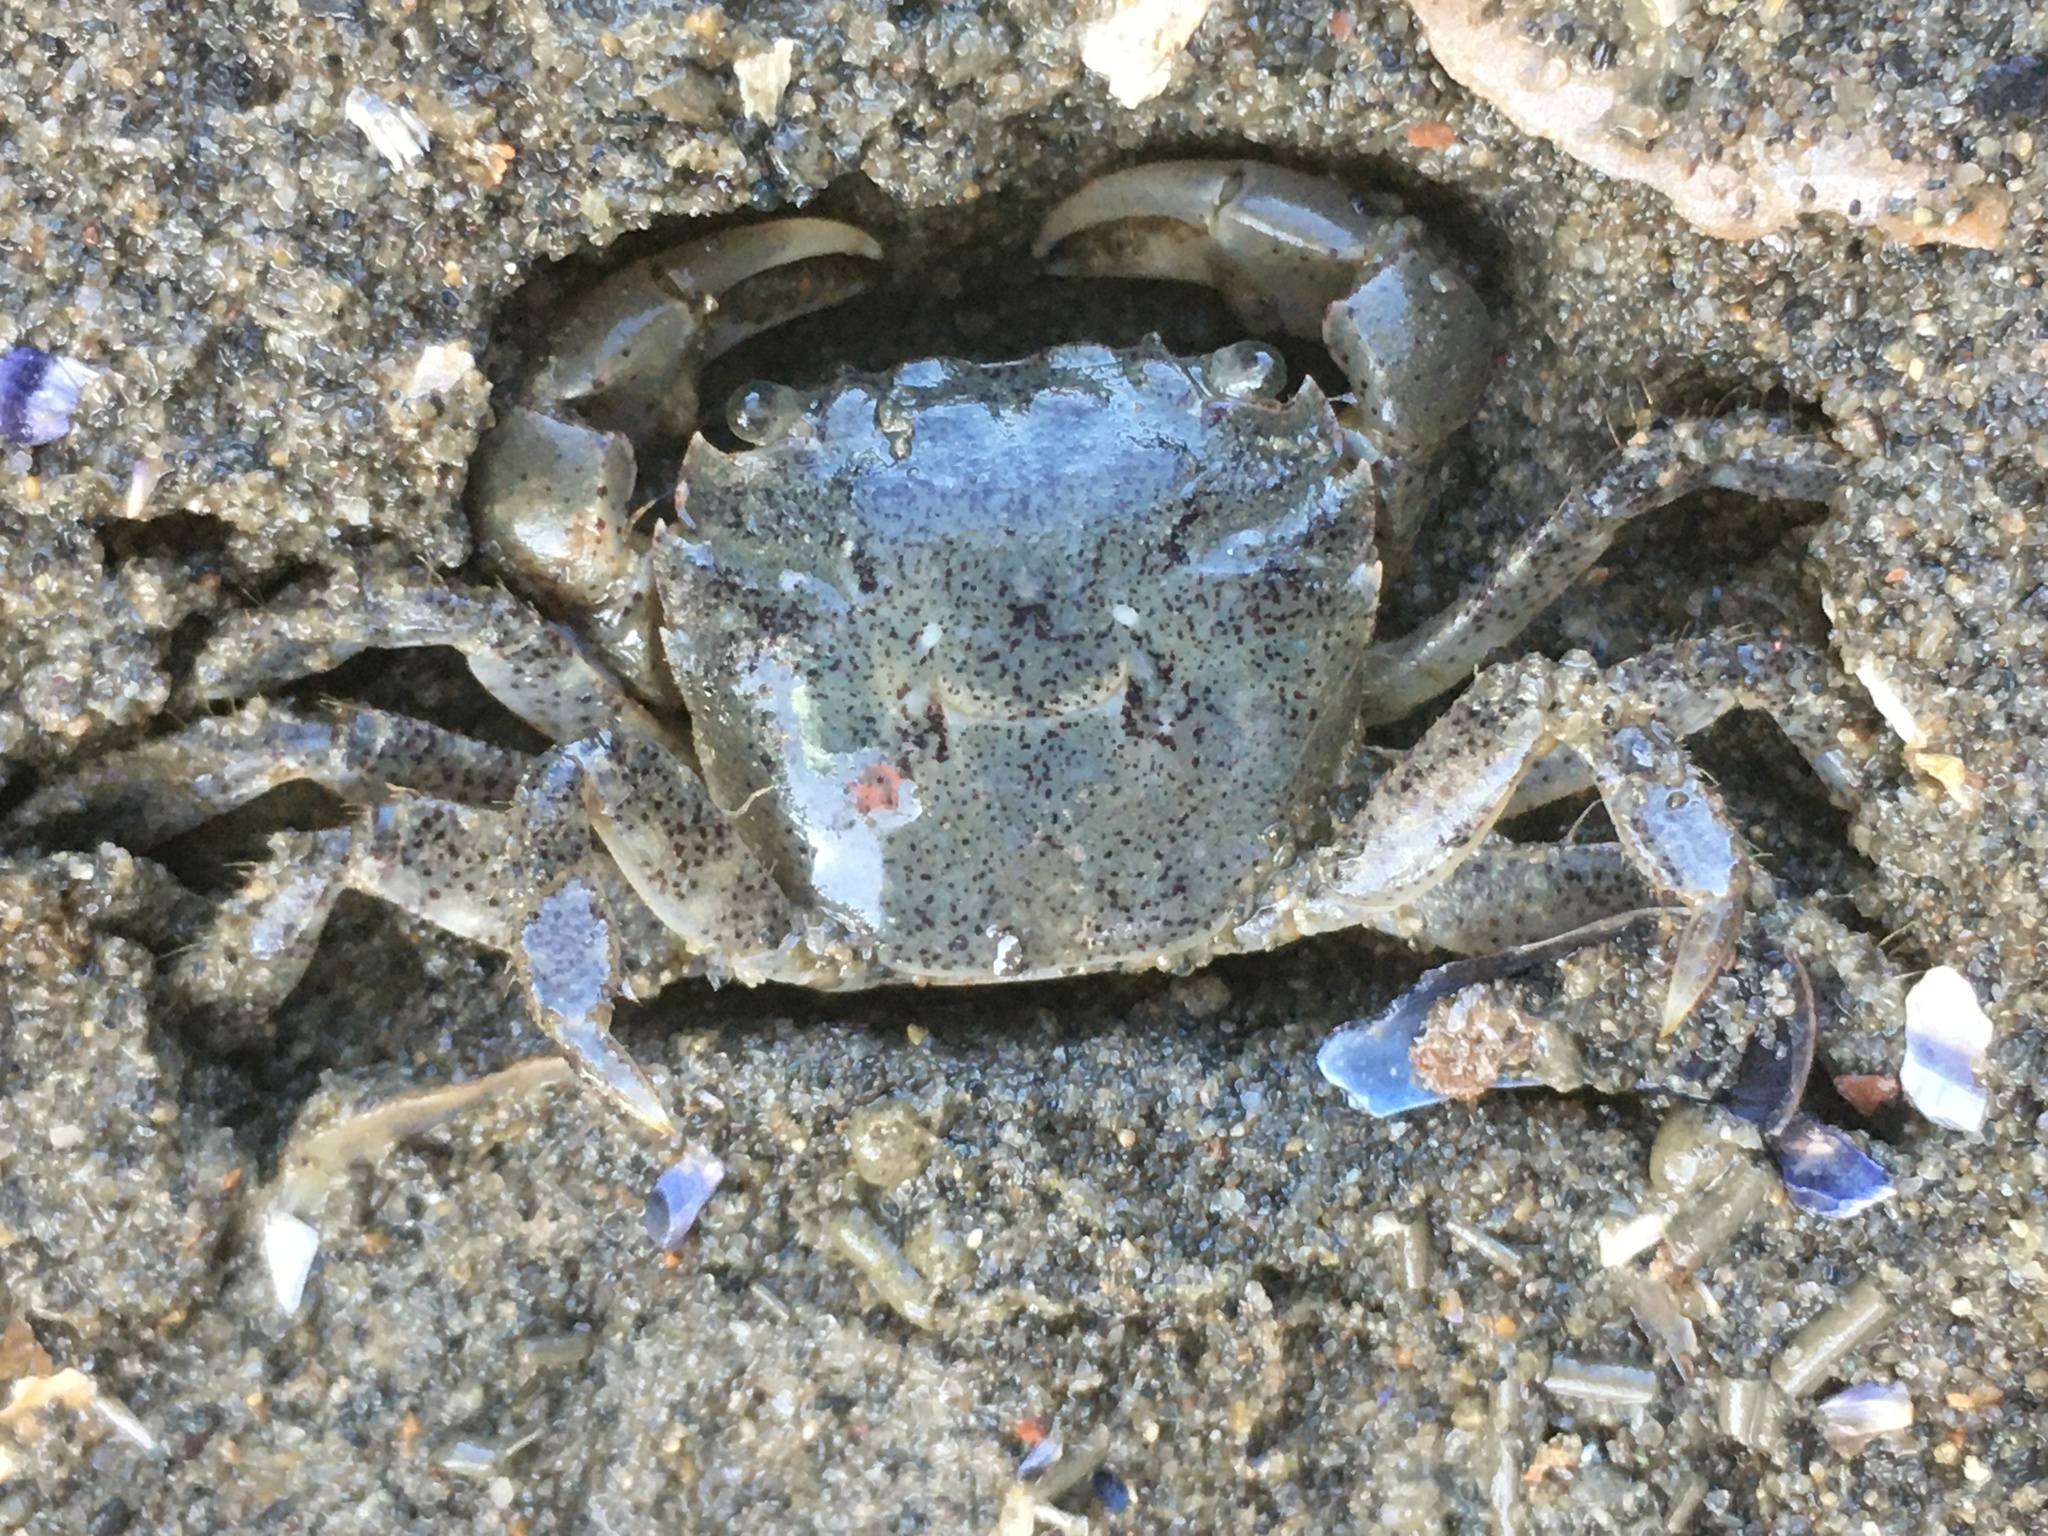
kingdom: Animalia
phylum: Arthropoda
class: Malacostraca
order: Decapoda
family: Varunidae
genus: Hemigrapsus
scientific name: Hemigrapsus oregonensis
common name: Yellow shore crab
